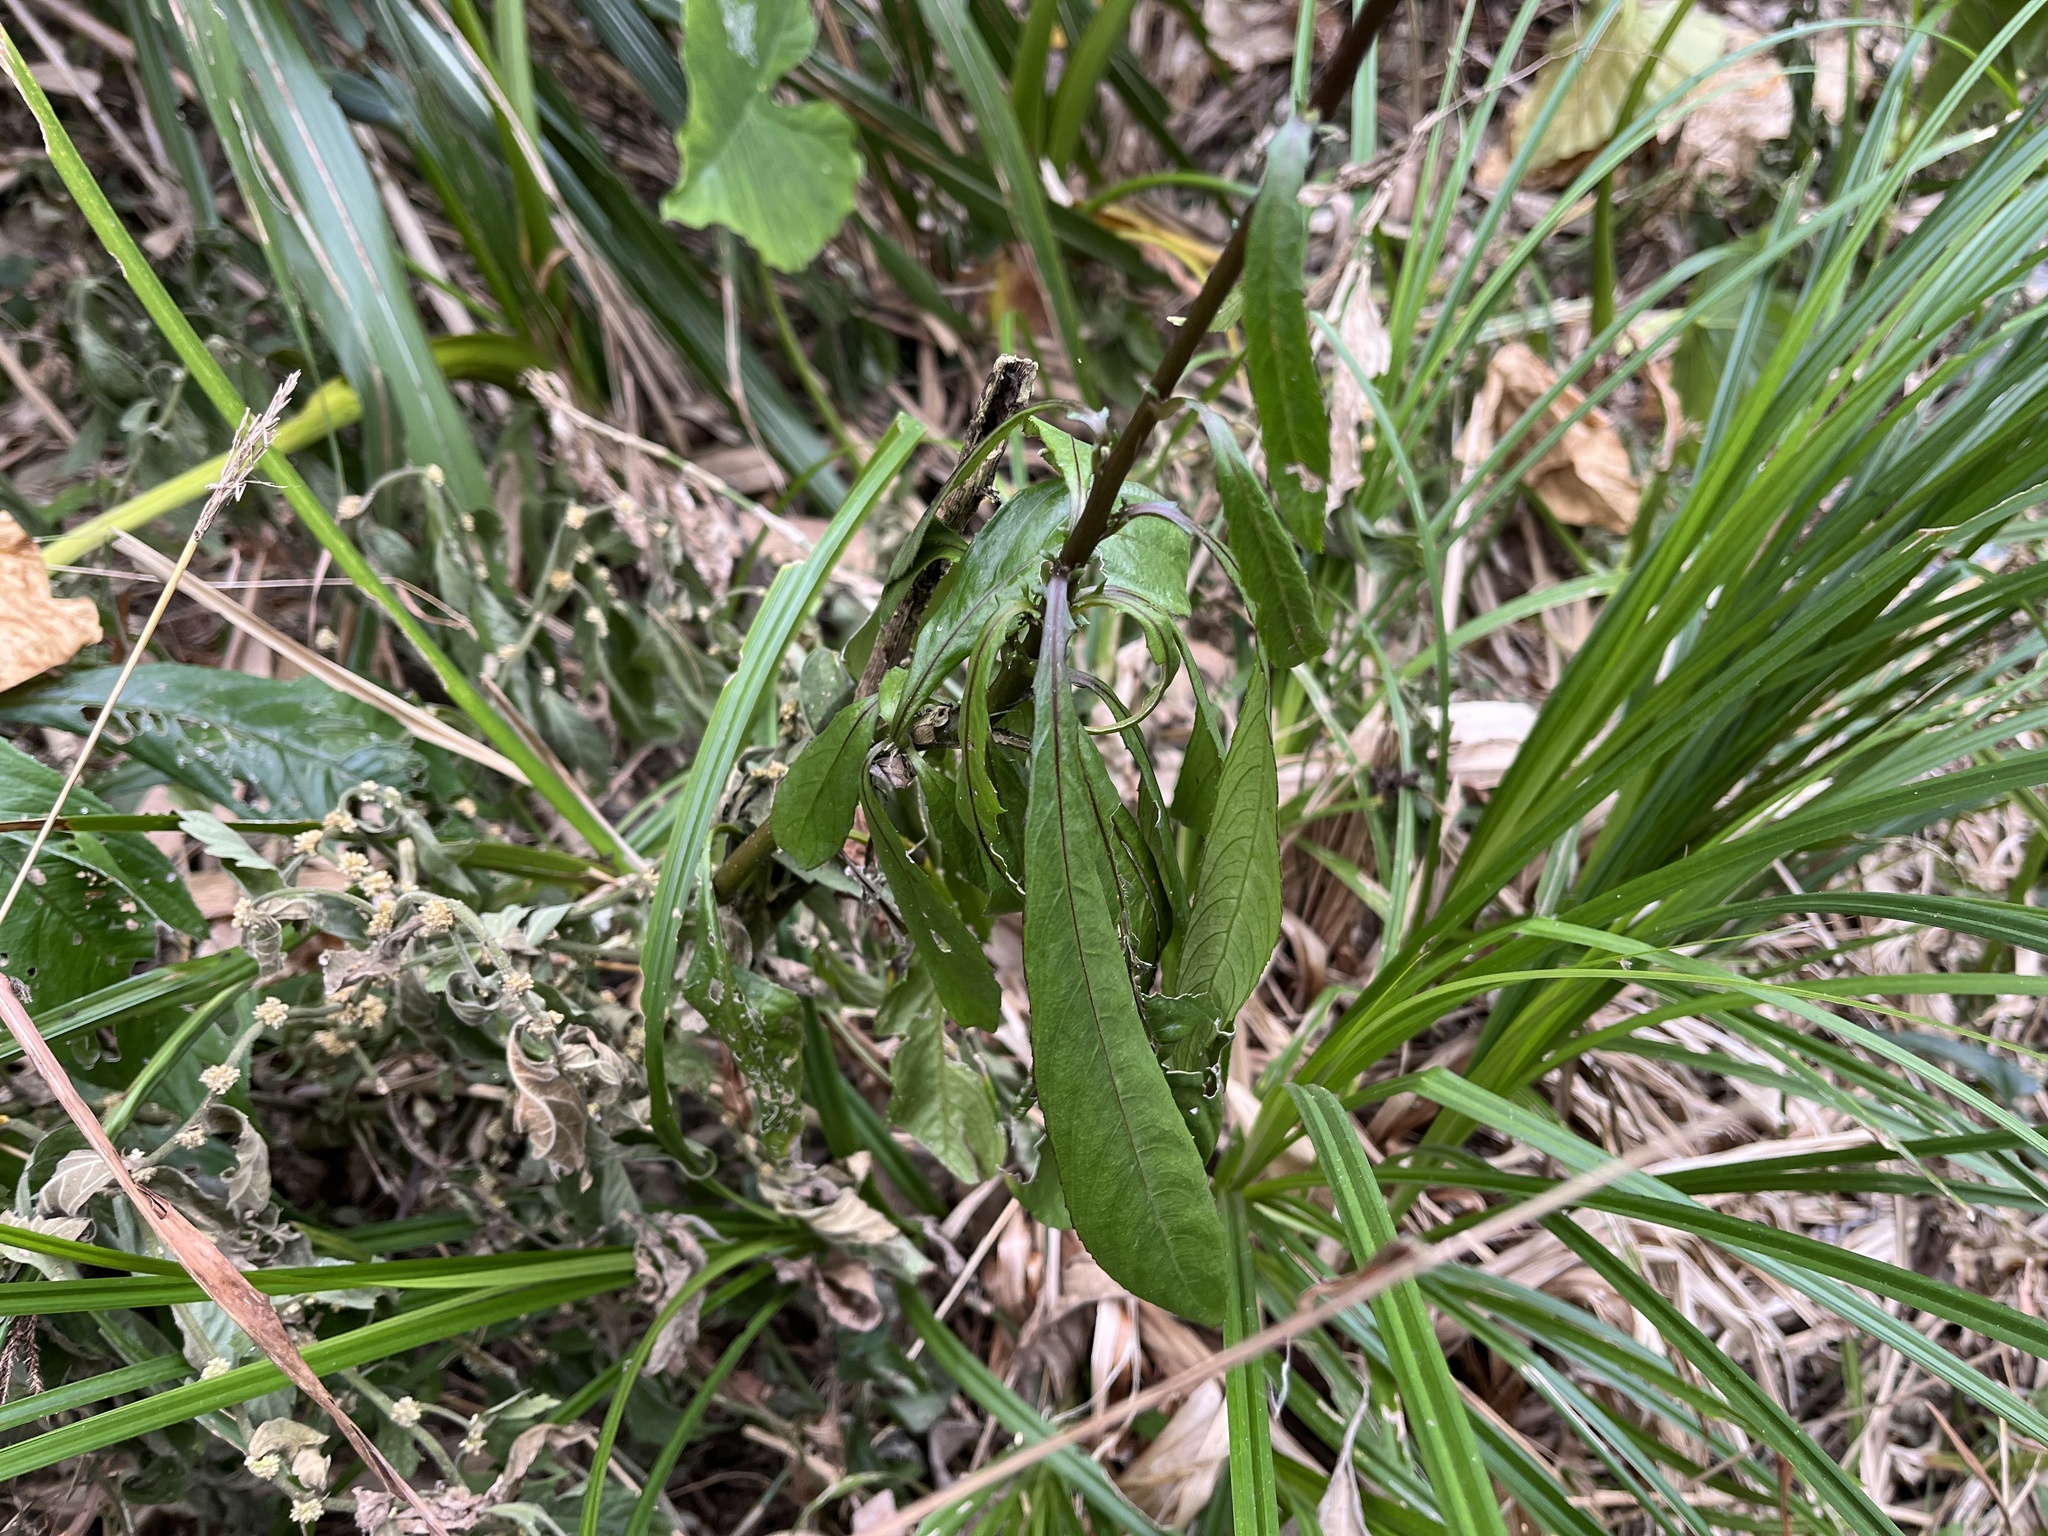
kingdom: Plantae
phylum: Tracheophyta
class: Magnoliopsida
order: Asterales
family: Asteraceae
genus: Blumea
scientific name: Blumea lanceolaria
